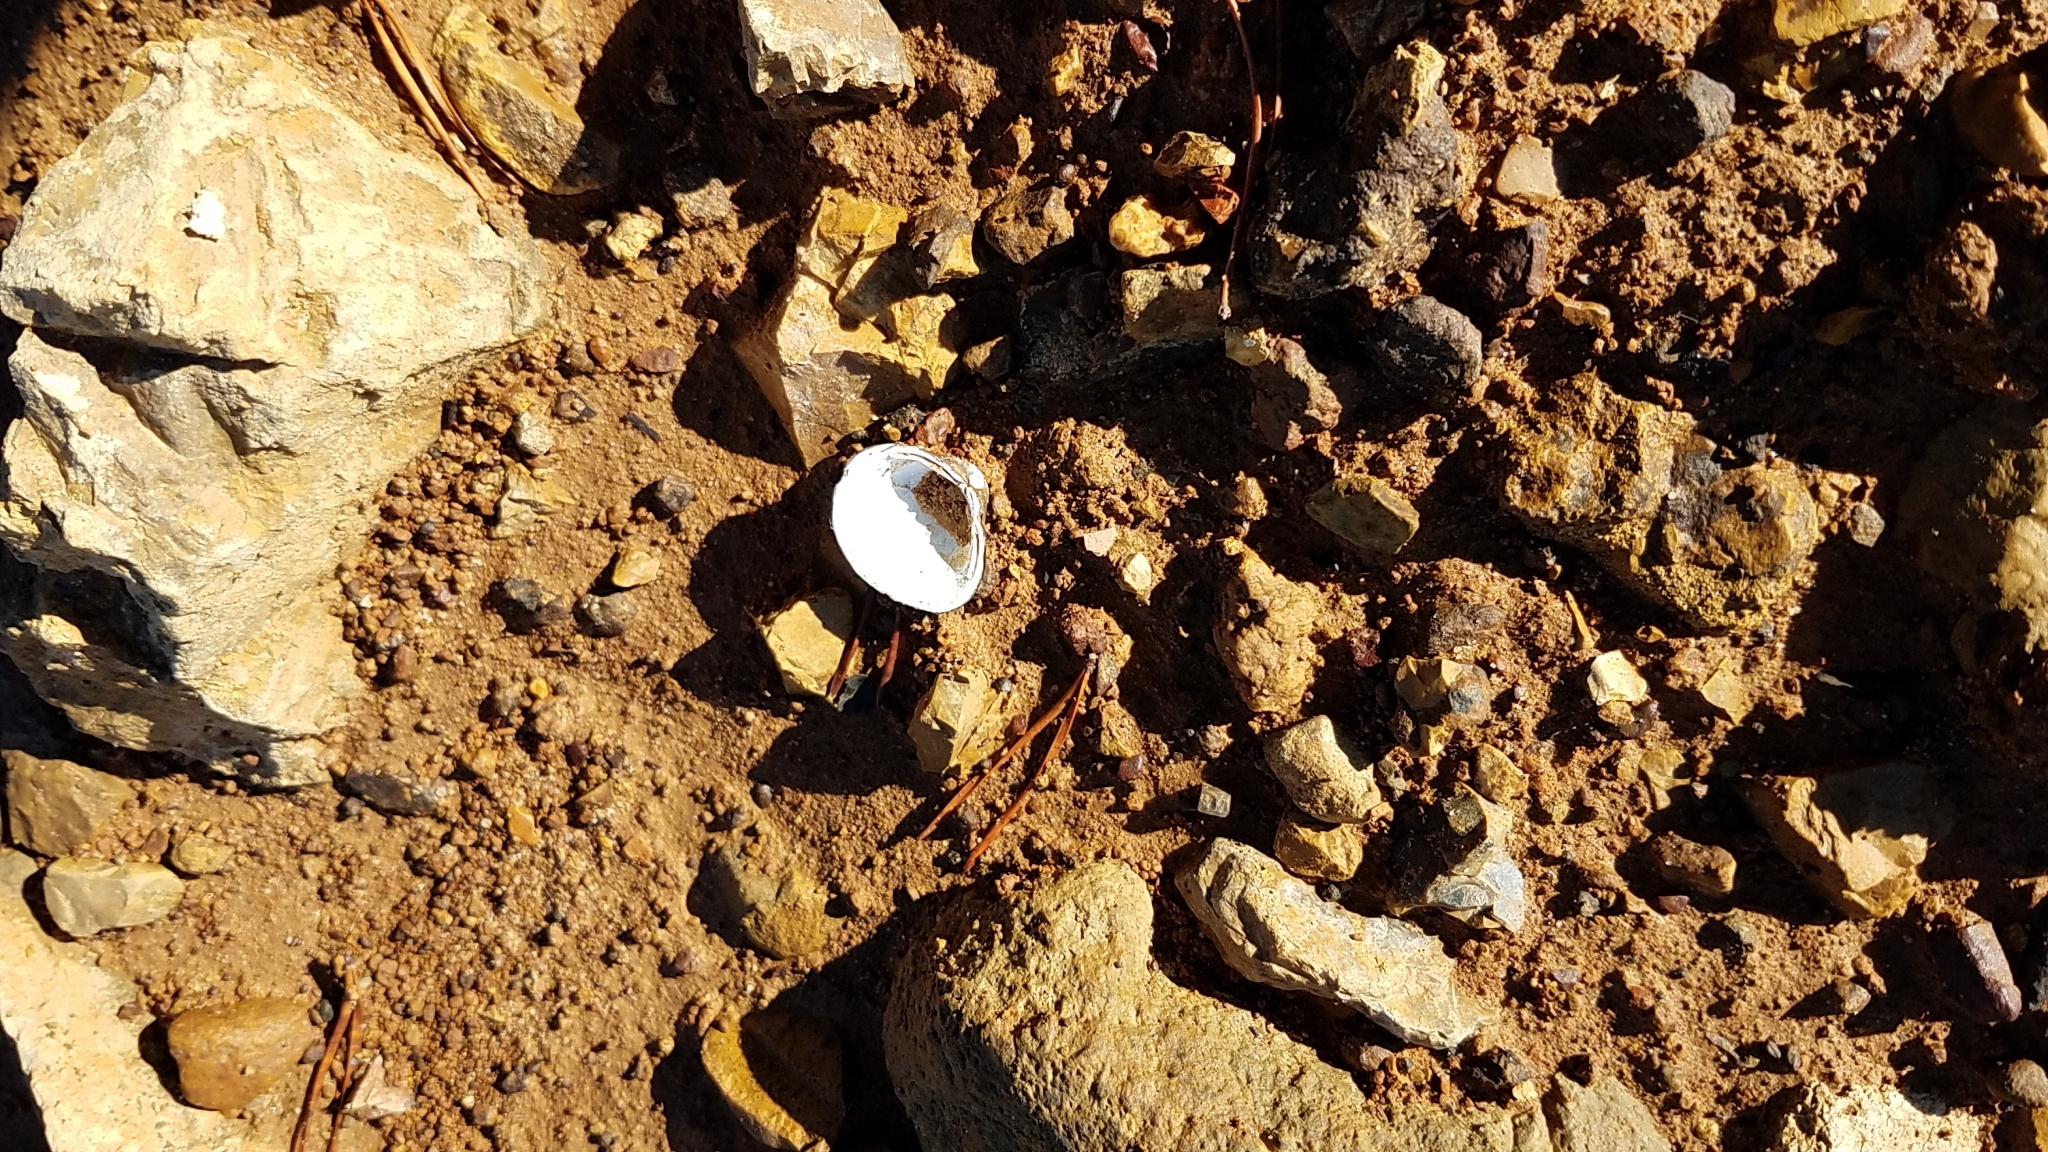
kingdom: Animalia
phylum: Mollusca
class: Bivalvia
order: Venerida
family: Cyrenidae
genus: Corbicula
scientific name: Corbicula fluminea
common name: Asian clam
